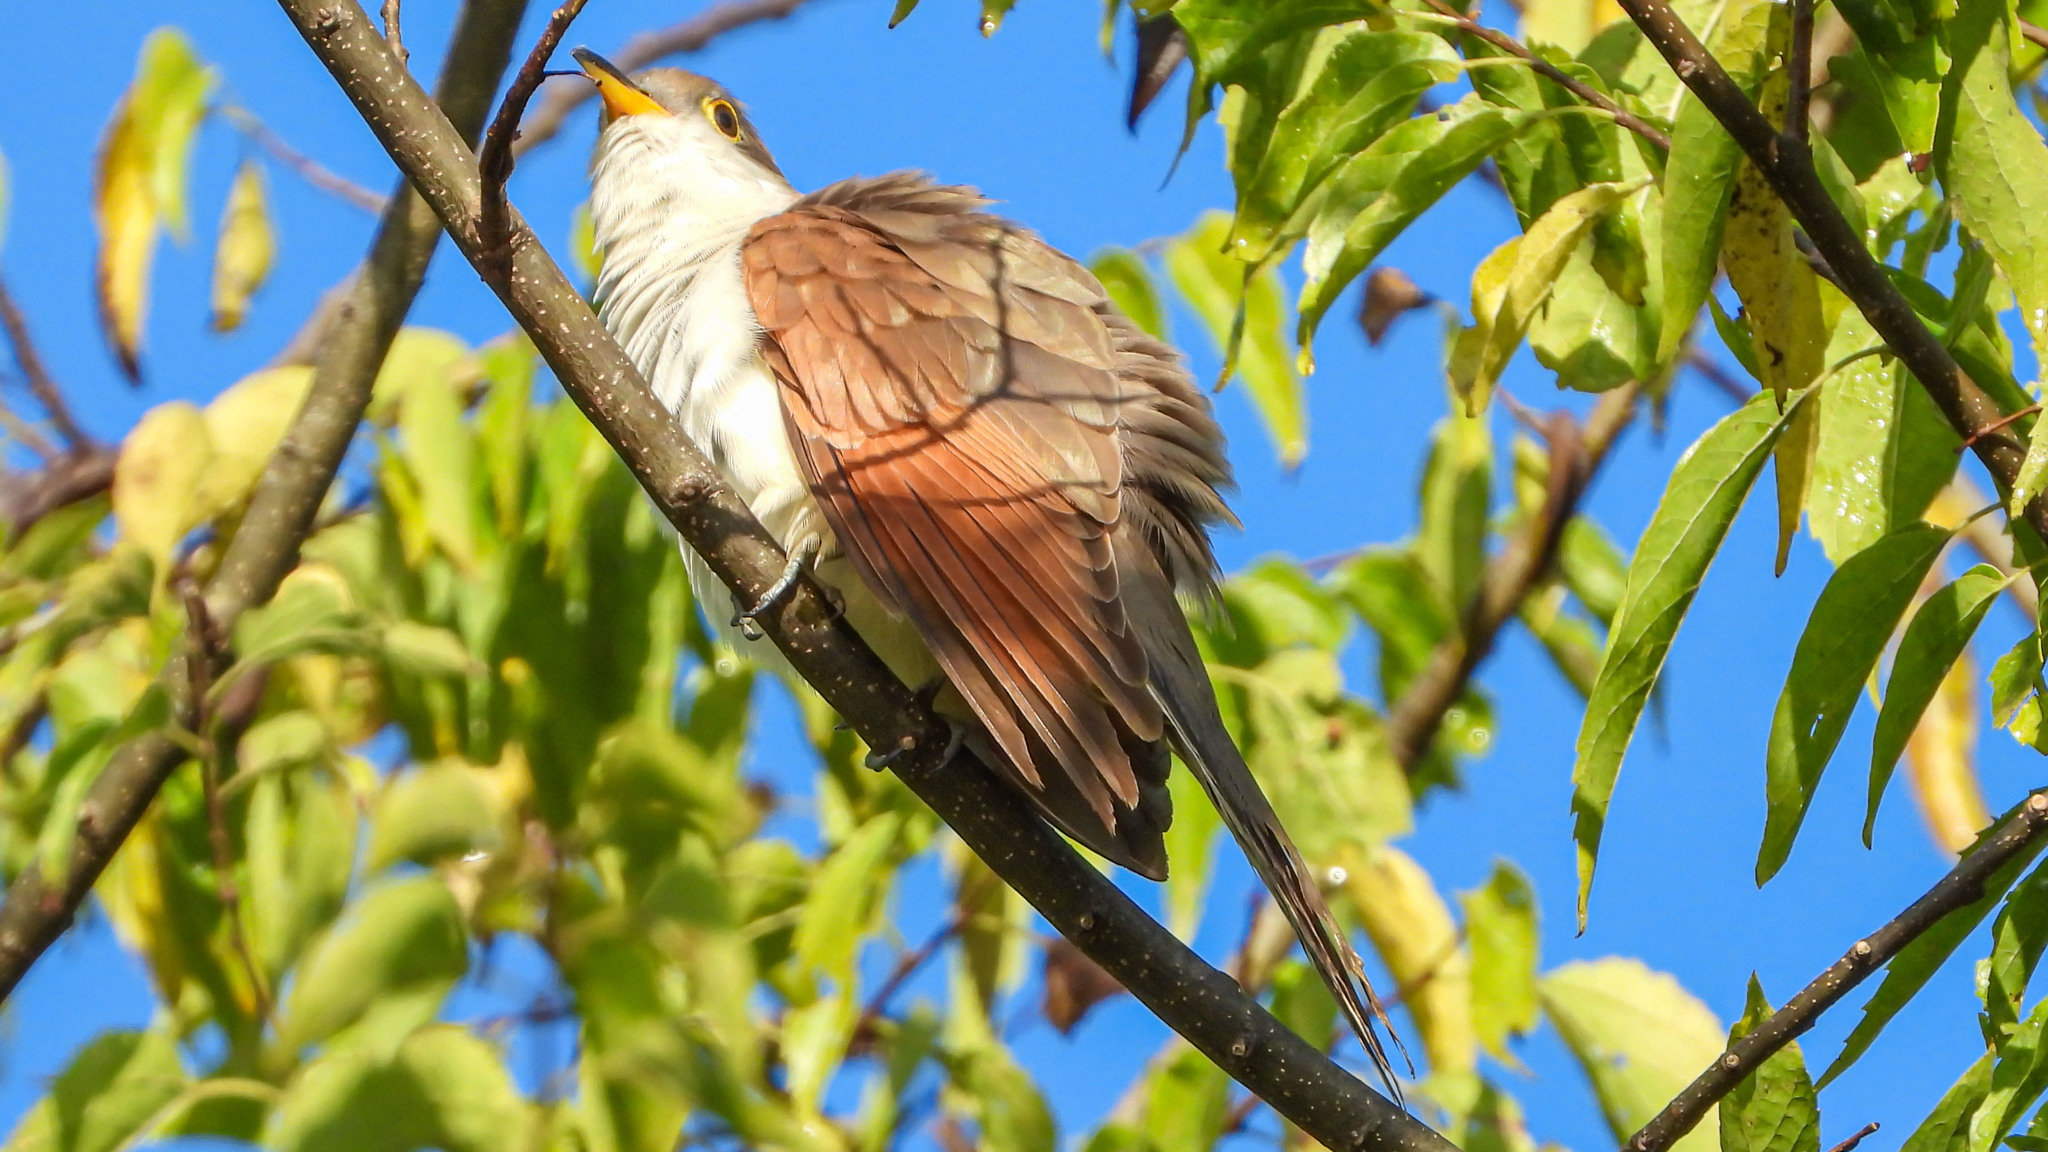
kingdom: Animalia
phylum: Chordata
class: Aves
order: Cuculiformes
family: Cuculidae
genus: Coccyzus
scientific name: Coccyzus americanus
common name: Yellow-billed cuckoo
